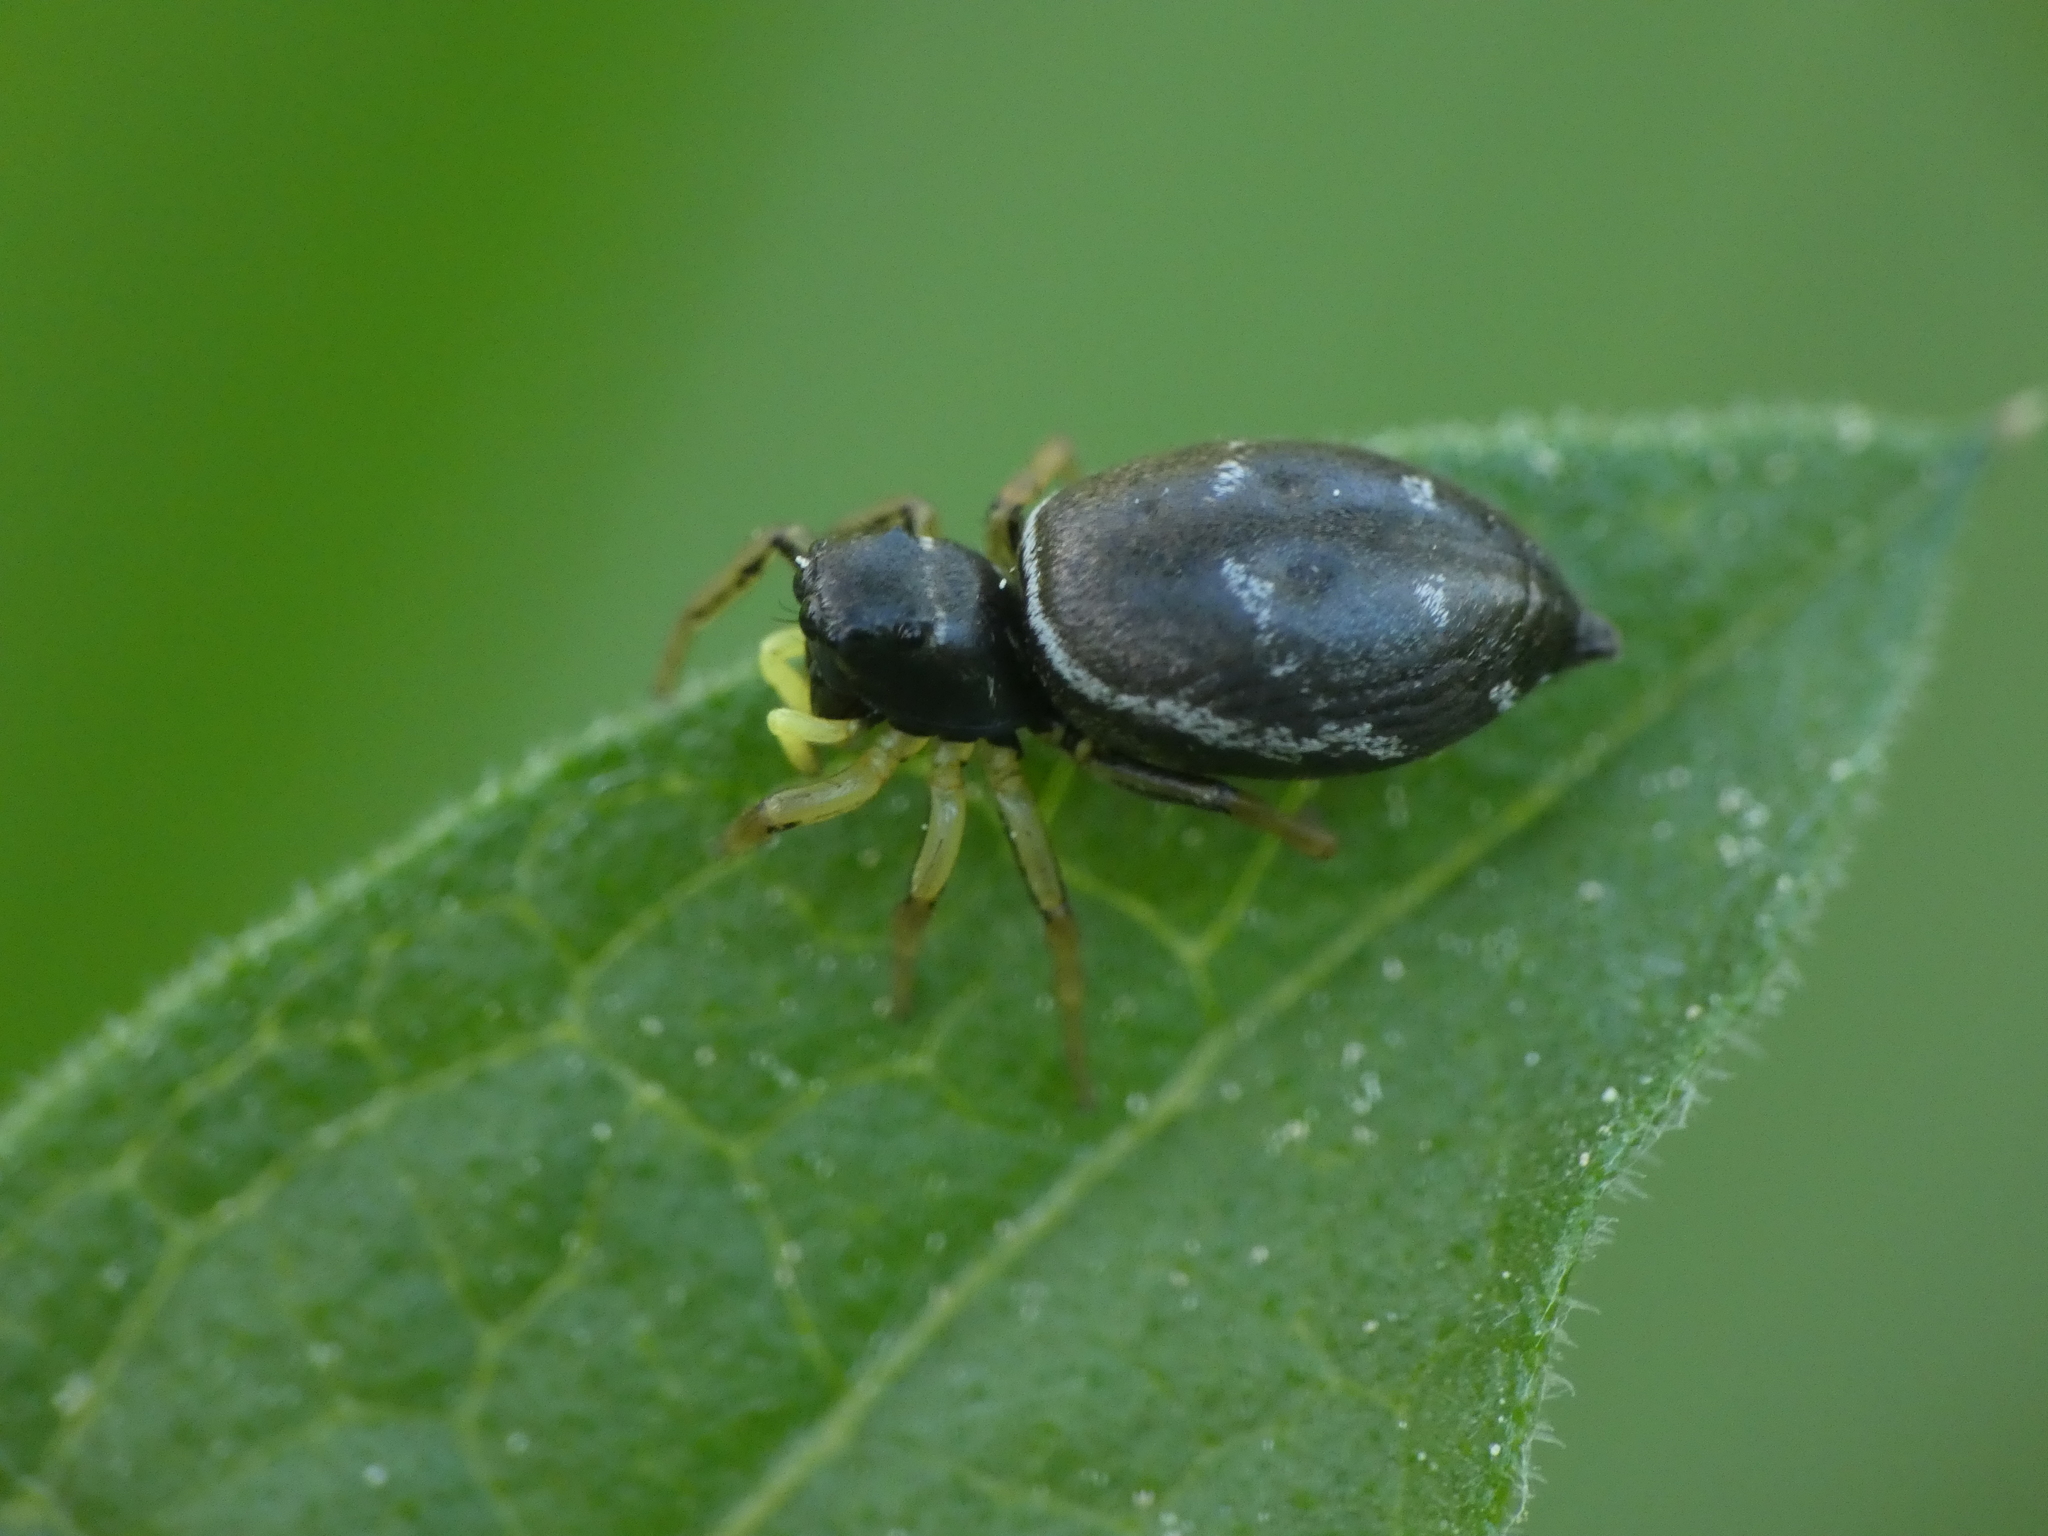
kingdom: Animalia
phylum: Arthropoda
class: Arachnida
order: Araneae
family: Salticidae
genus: Heliophanus
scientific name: Heliophanus cupreus
